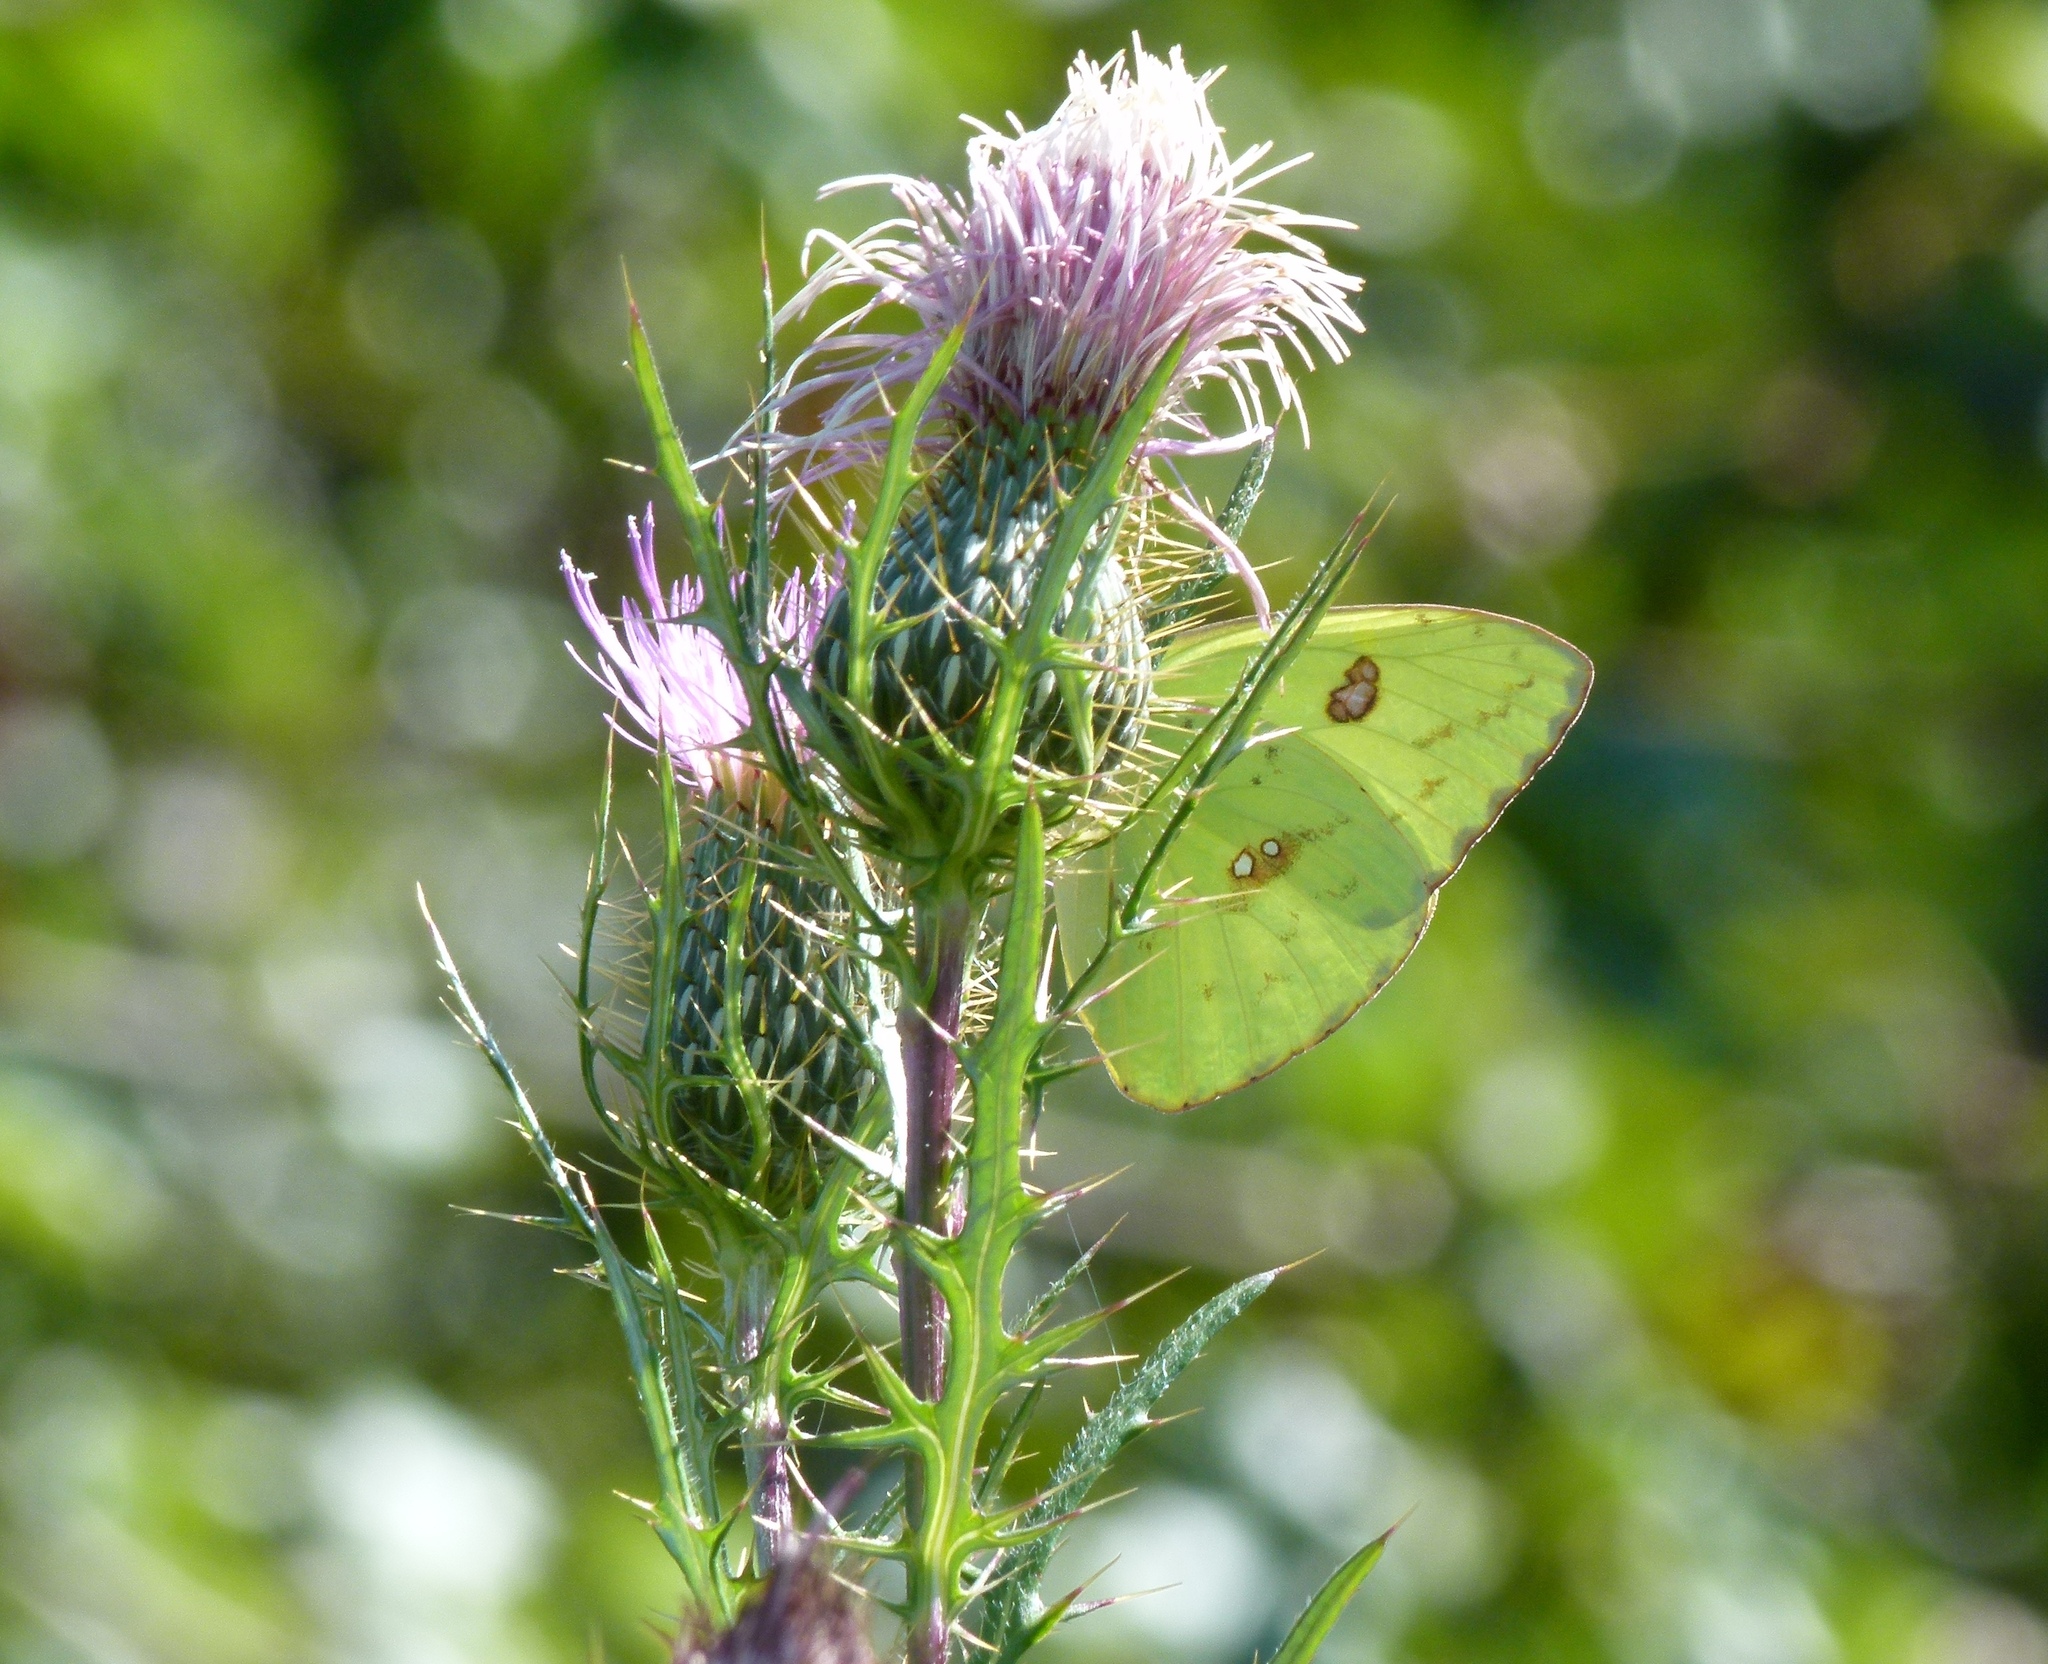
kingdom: Animalia
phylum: Arthropoda
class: Insecta
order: Lepidoptera
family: Pieridae
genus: Phoebis
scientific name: Phoebis sennae
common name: Cloudless sulphur
